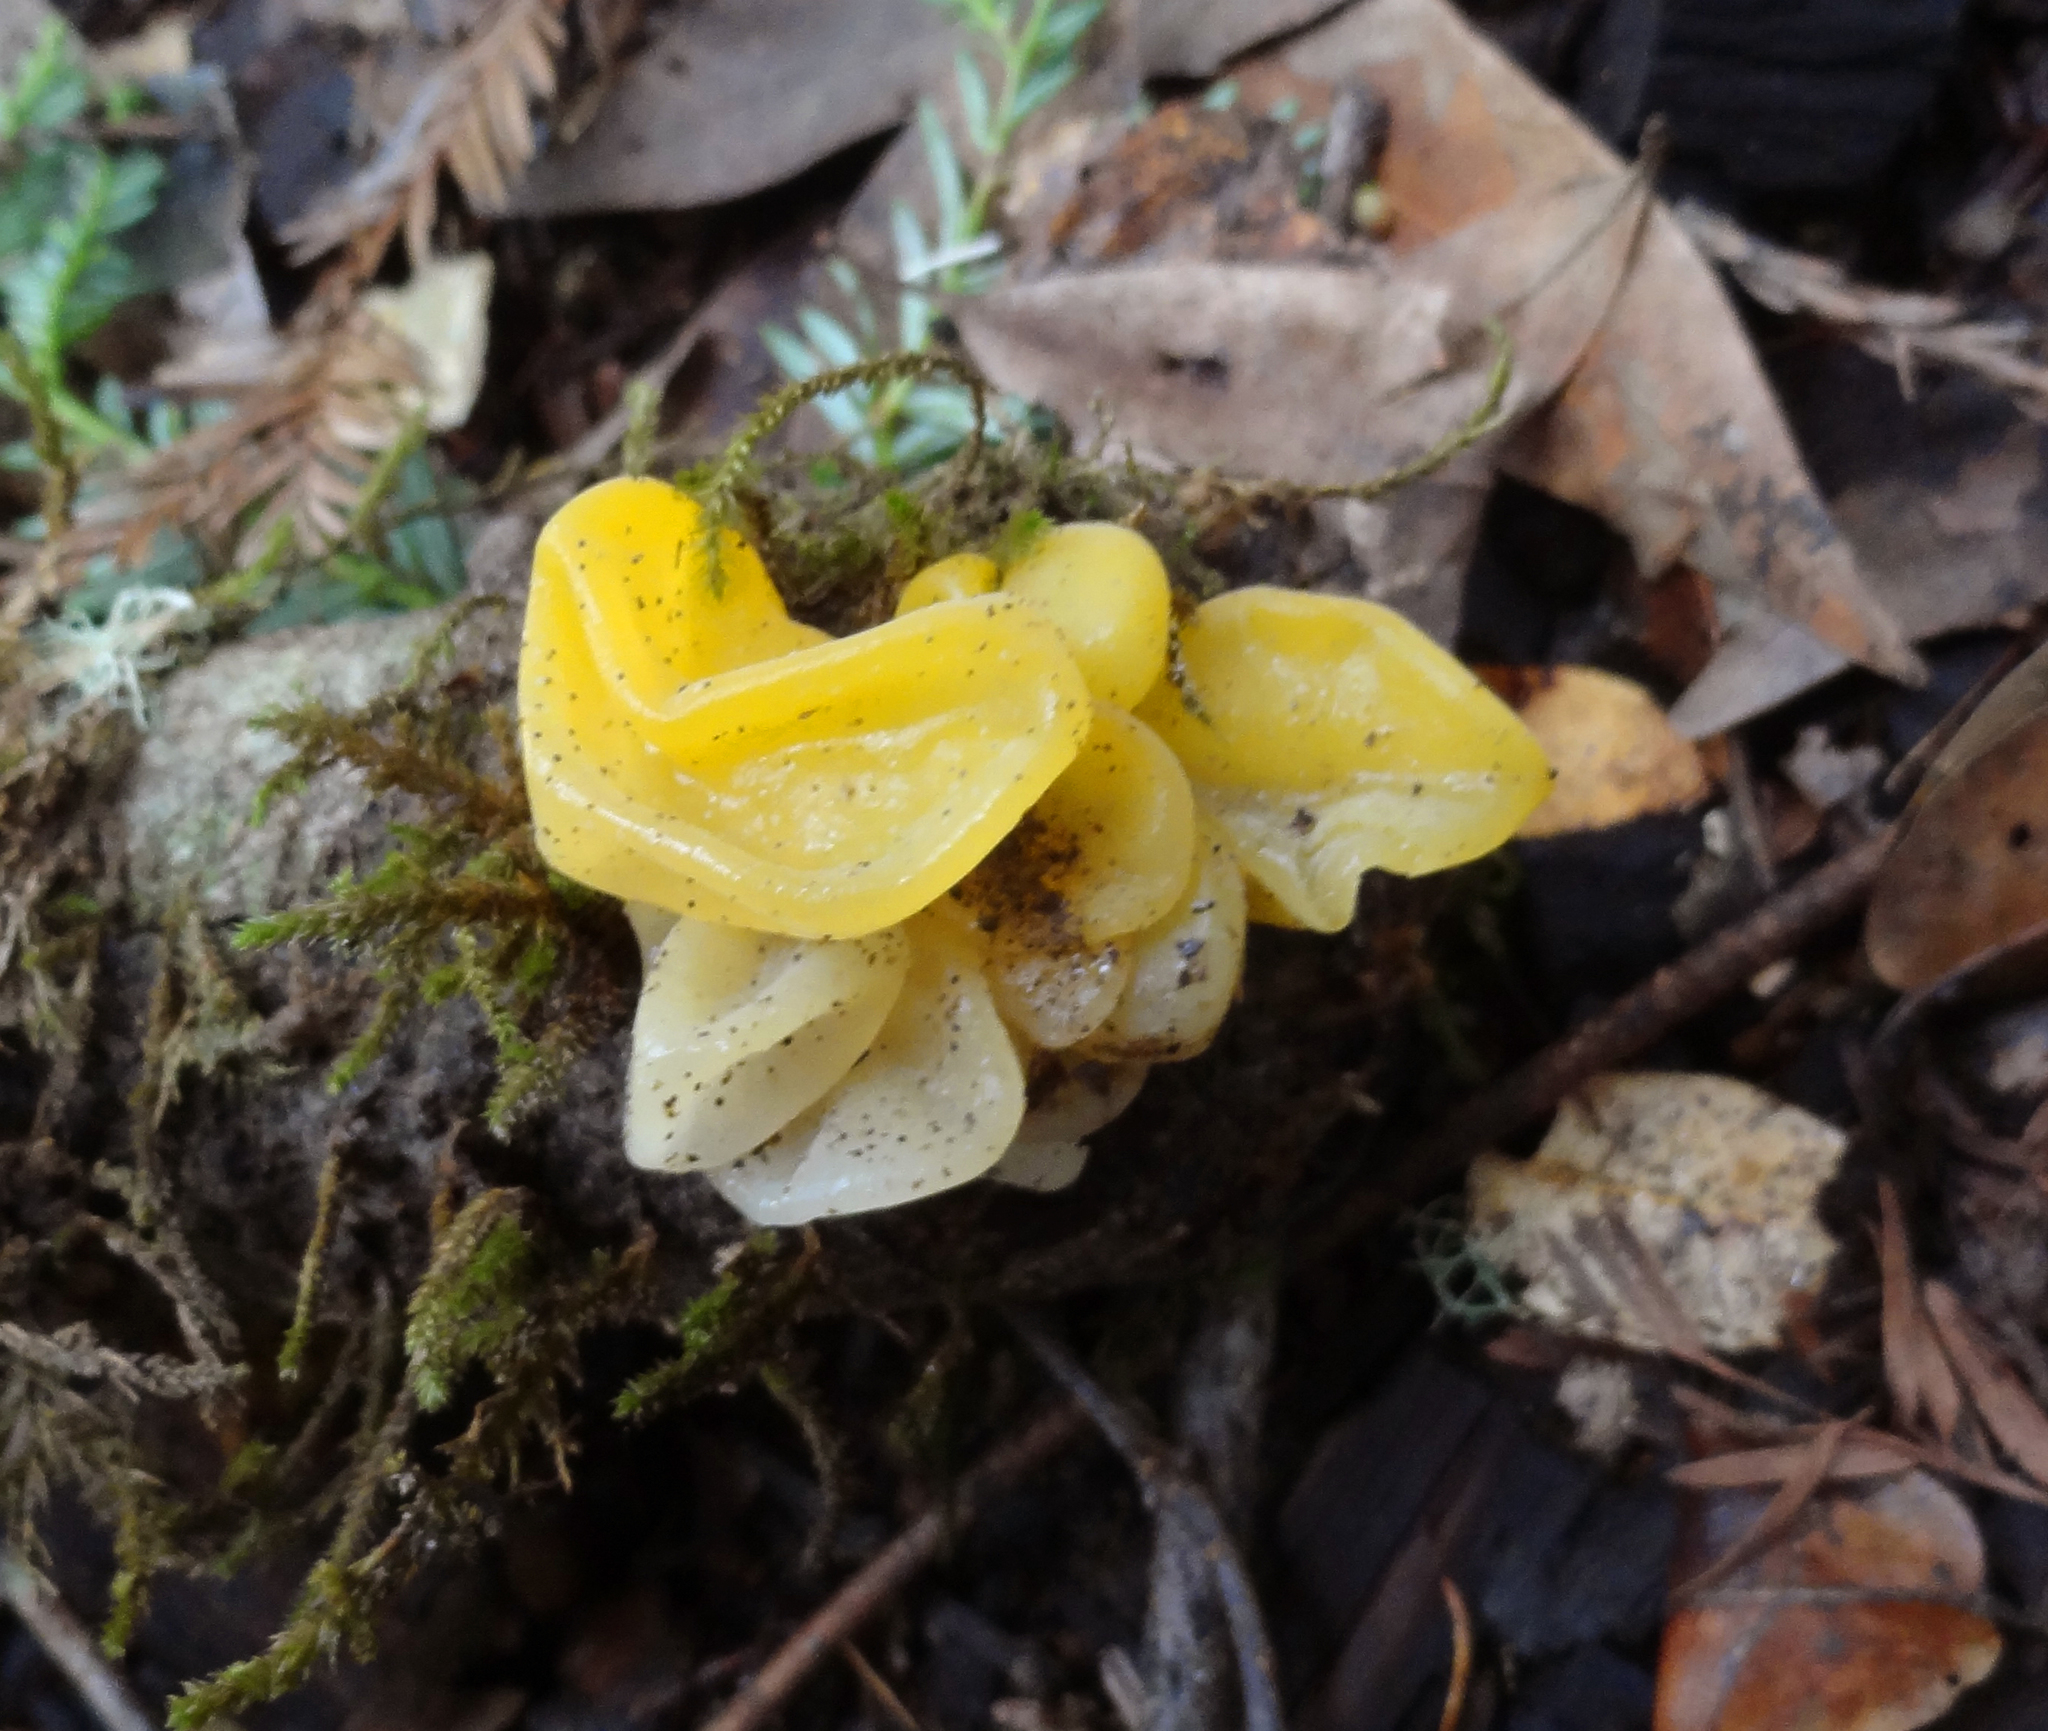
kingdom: Fungi
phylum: Basidiomycota
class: Tremellomycetes
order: Tremellales
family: Naemateliaceae
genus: Naematelia
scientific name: Naematelia aurantia
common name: Golden ear
